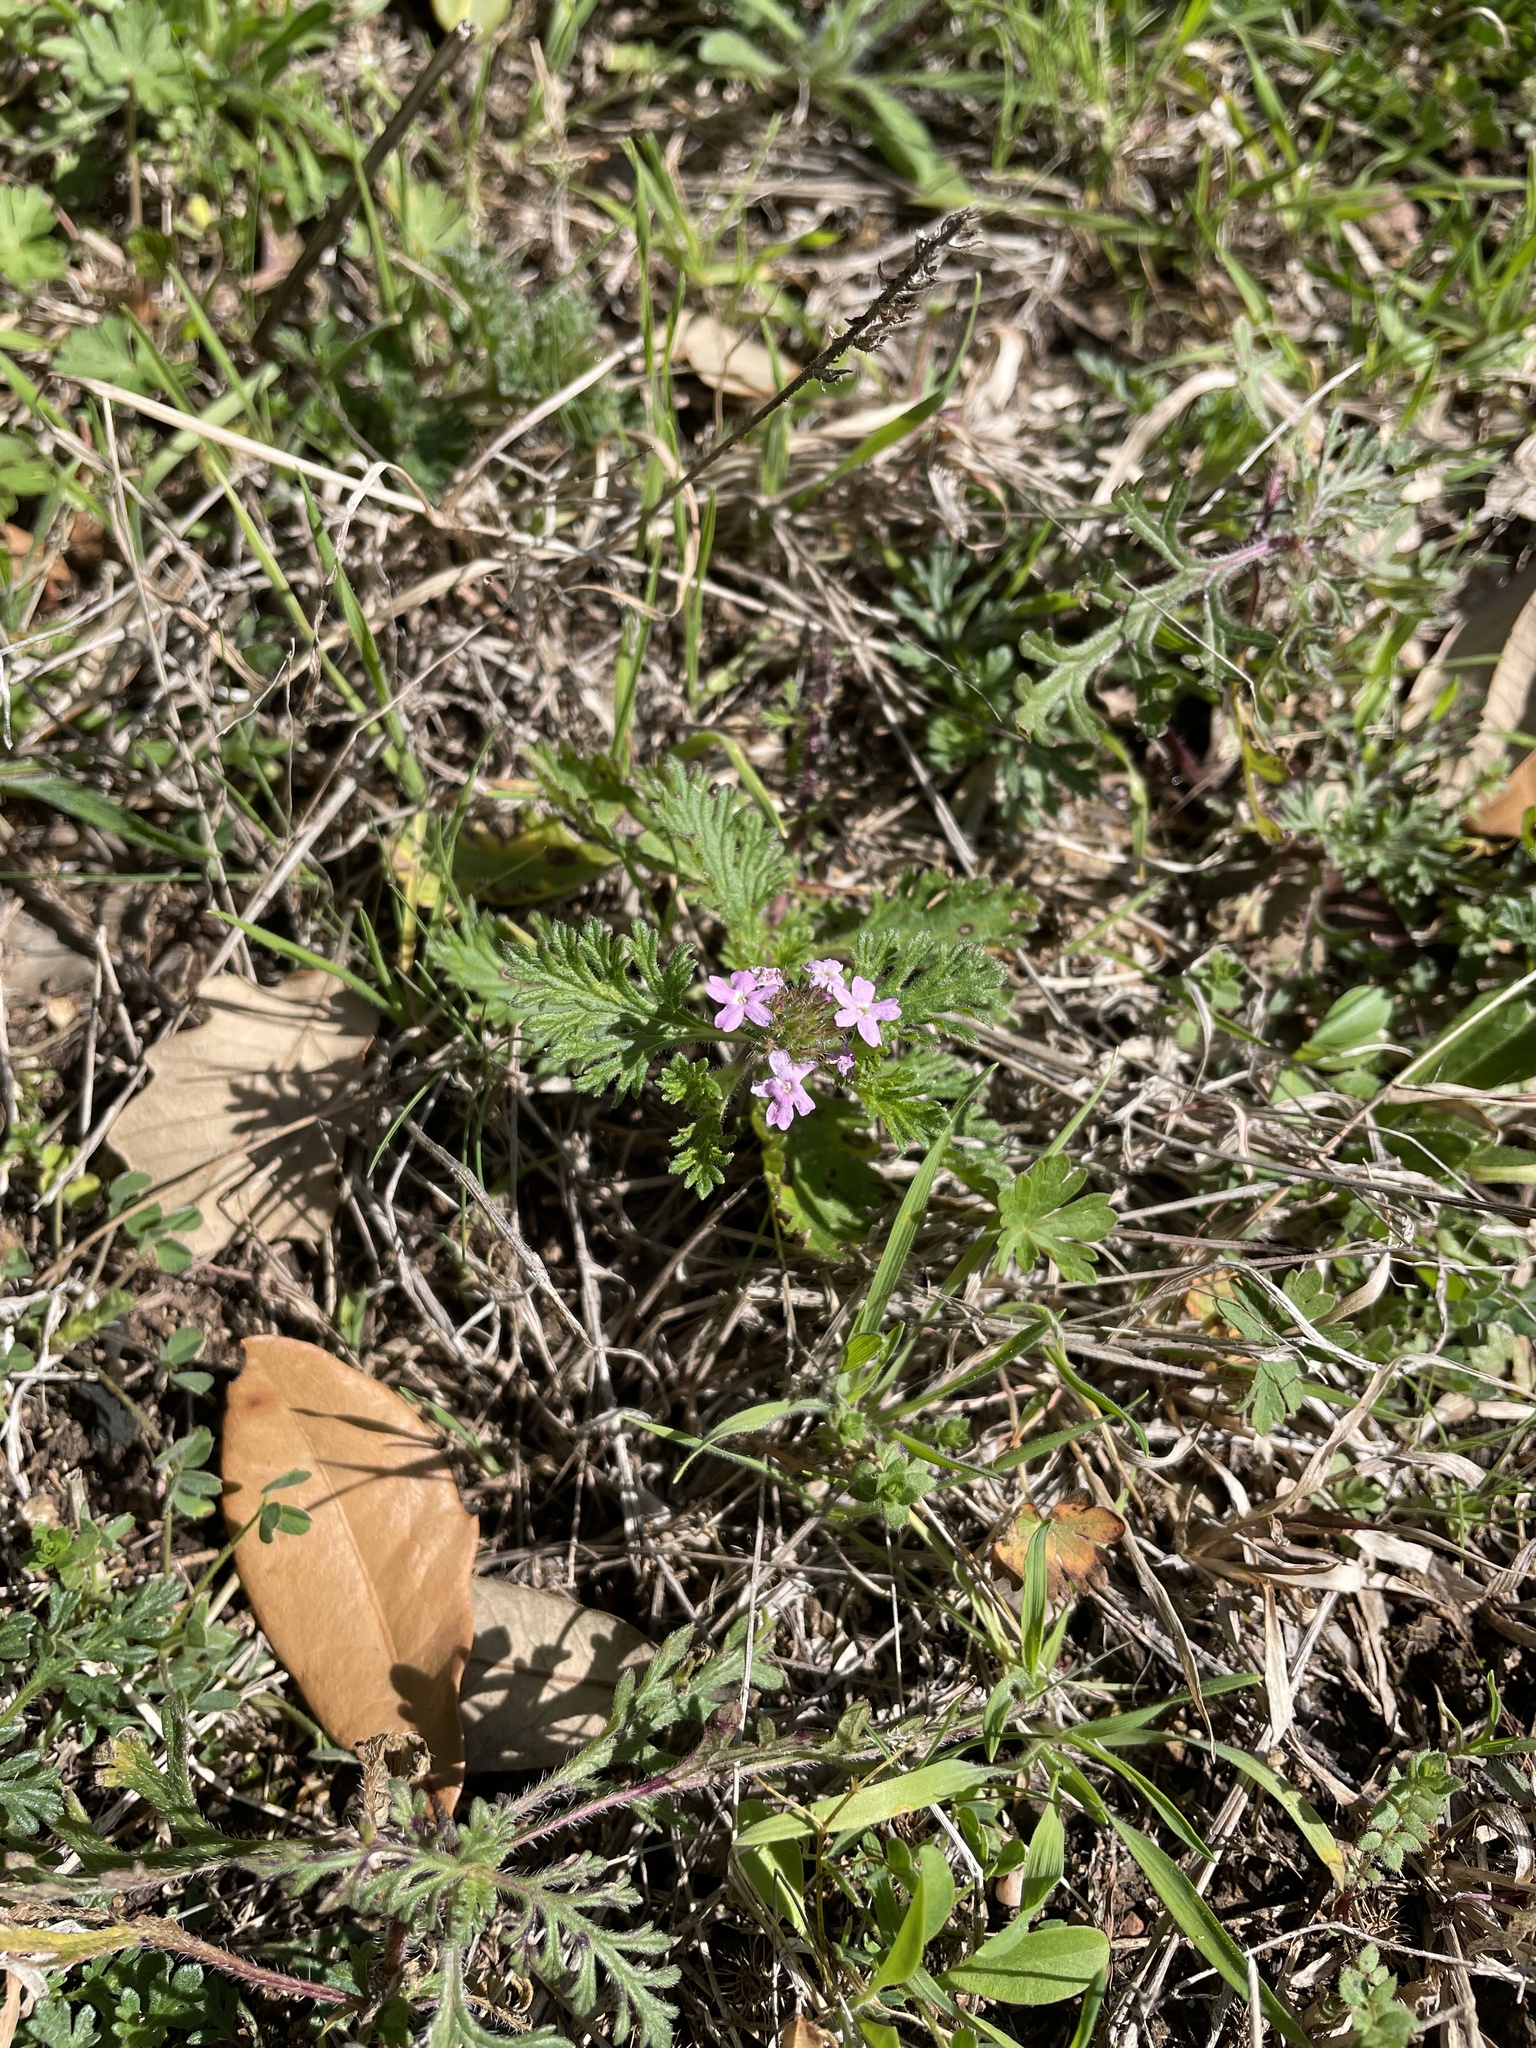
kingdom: Plantae
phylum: Tracheophyta
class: Magnoliopsida
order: Lamiales
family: Verbenaceae
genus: Verbena
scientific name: Verbena pumila
